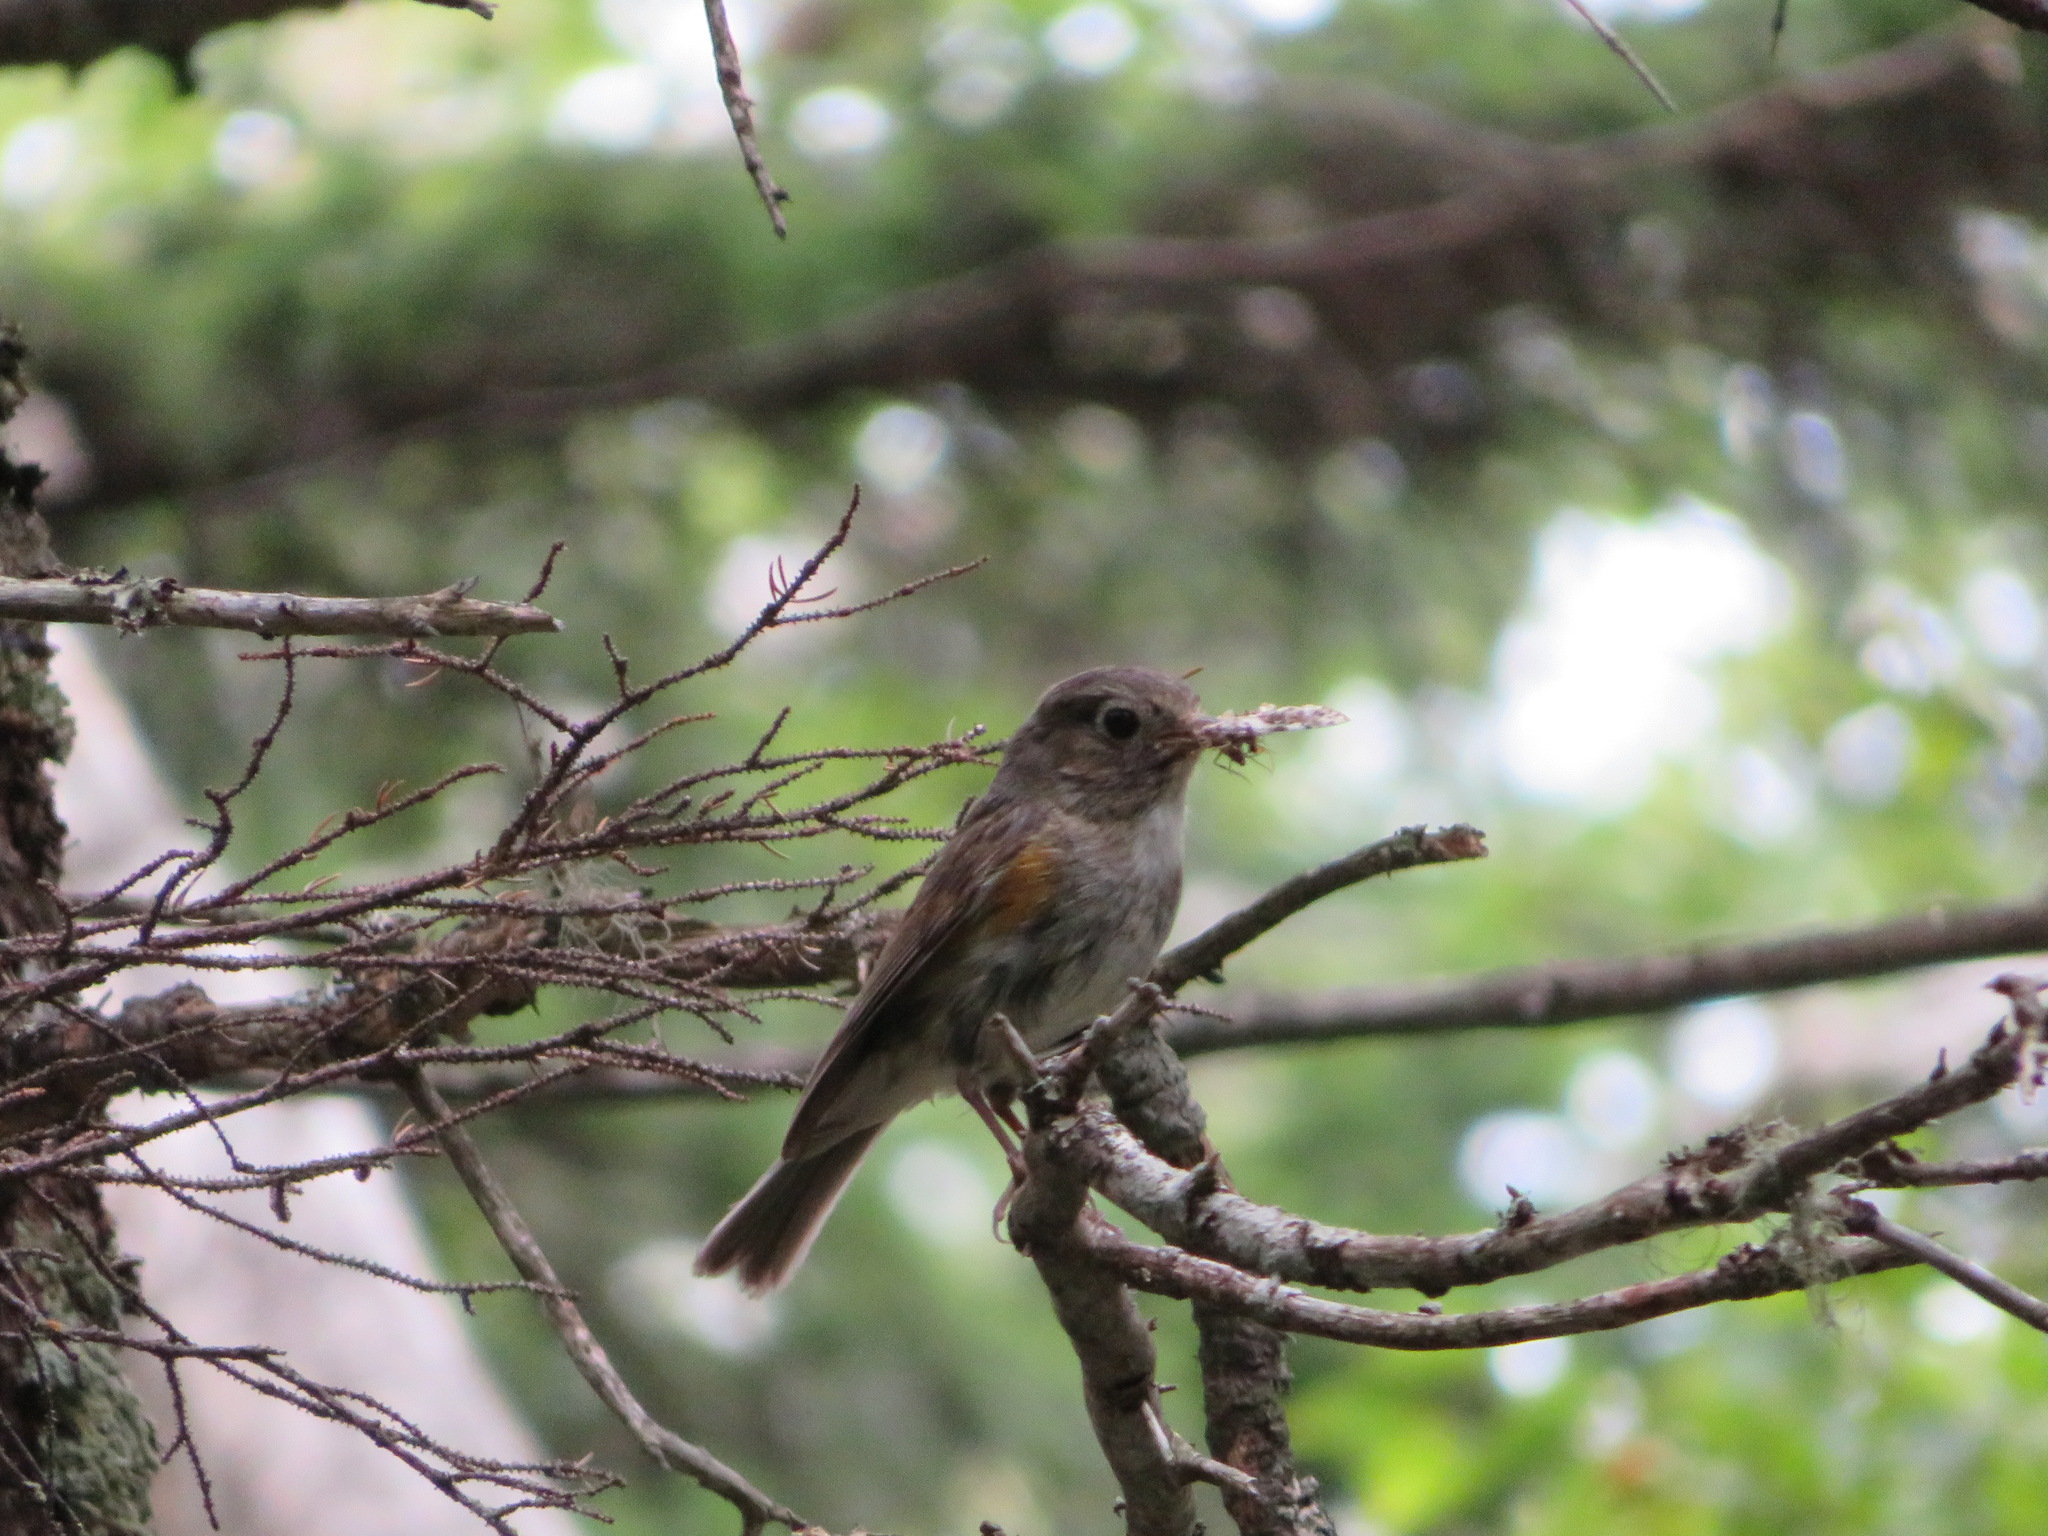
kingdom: Animalia
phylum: Chordata
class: Aves
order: Passeriformes
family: Muscicapidae
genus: Tarsiger
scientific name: Tarsiger cyanurus
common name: Red-flanked bluetail
